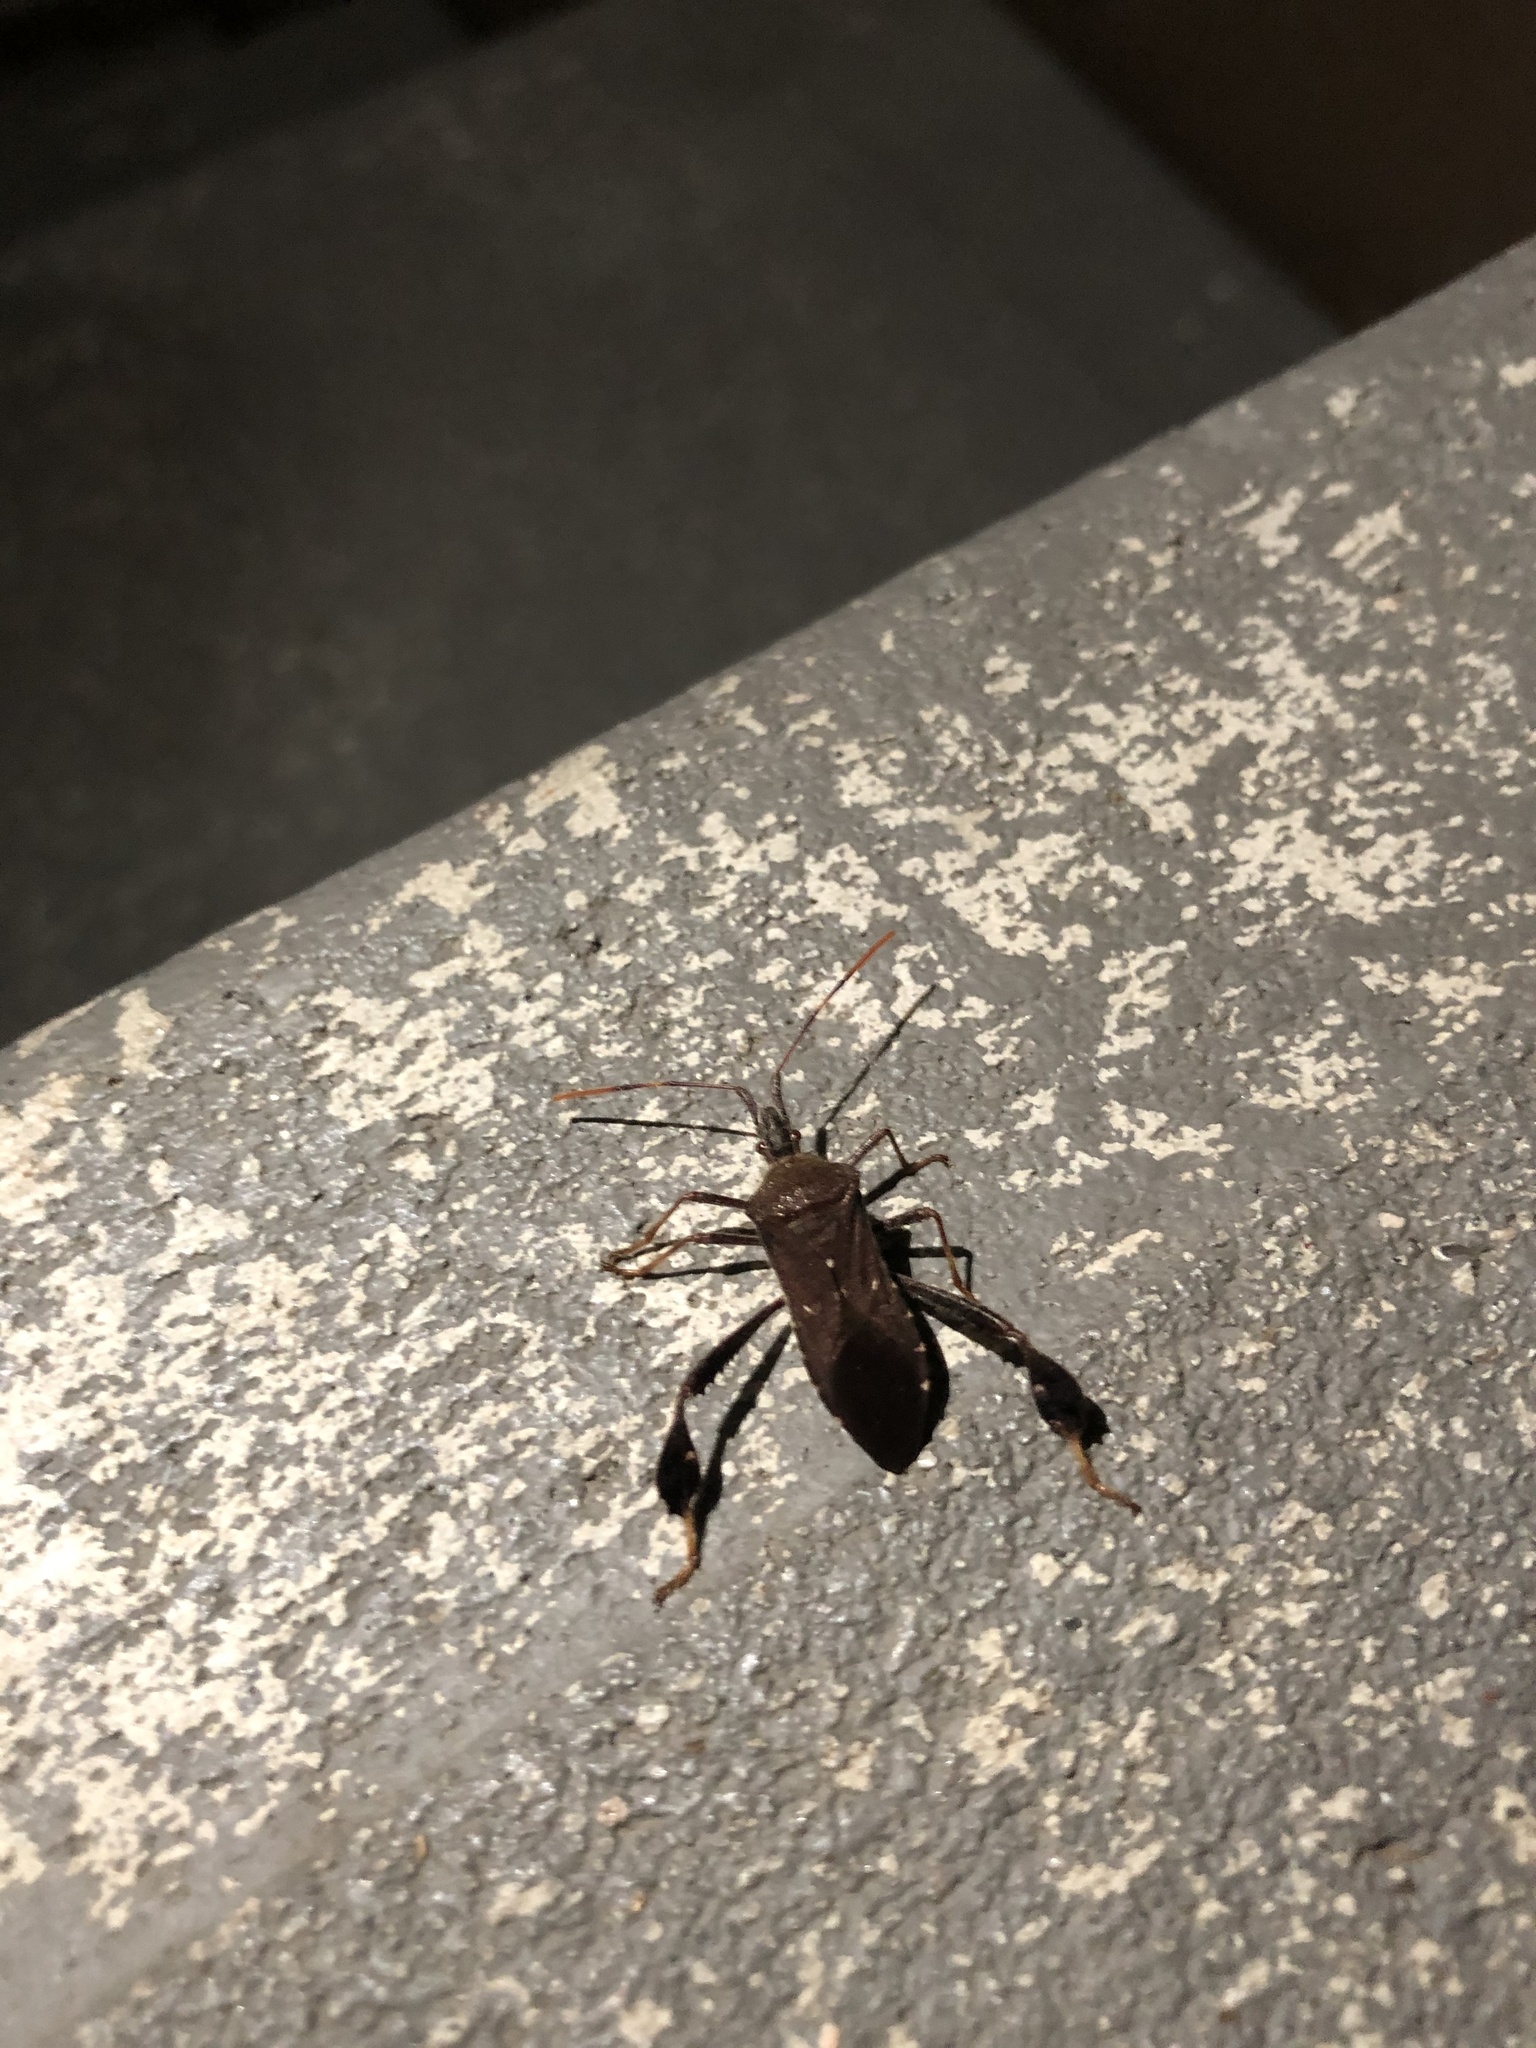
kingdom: Animalia
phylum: Arthropoda
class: Insecta
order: Hemiptera
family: Coreidae
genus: Leptoglossus
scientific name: Leptoglossus oppositus
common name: Northern leaf-footed bug
